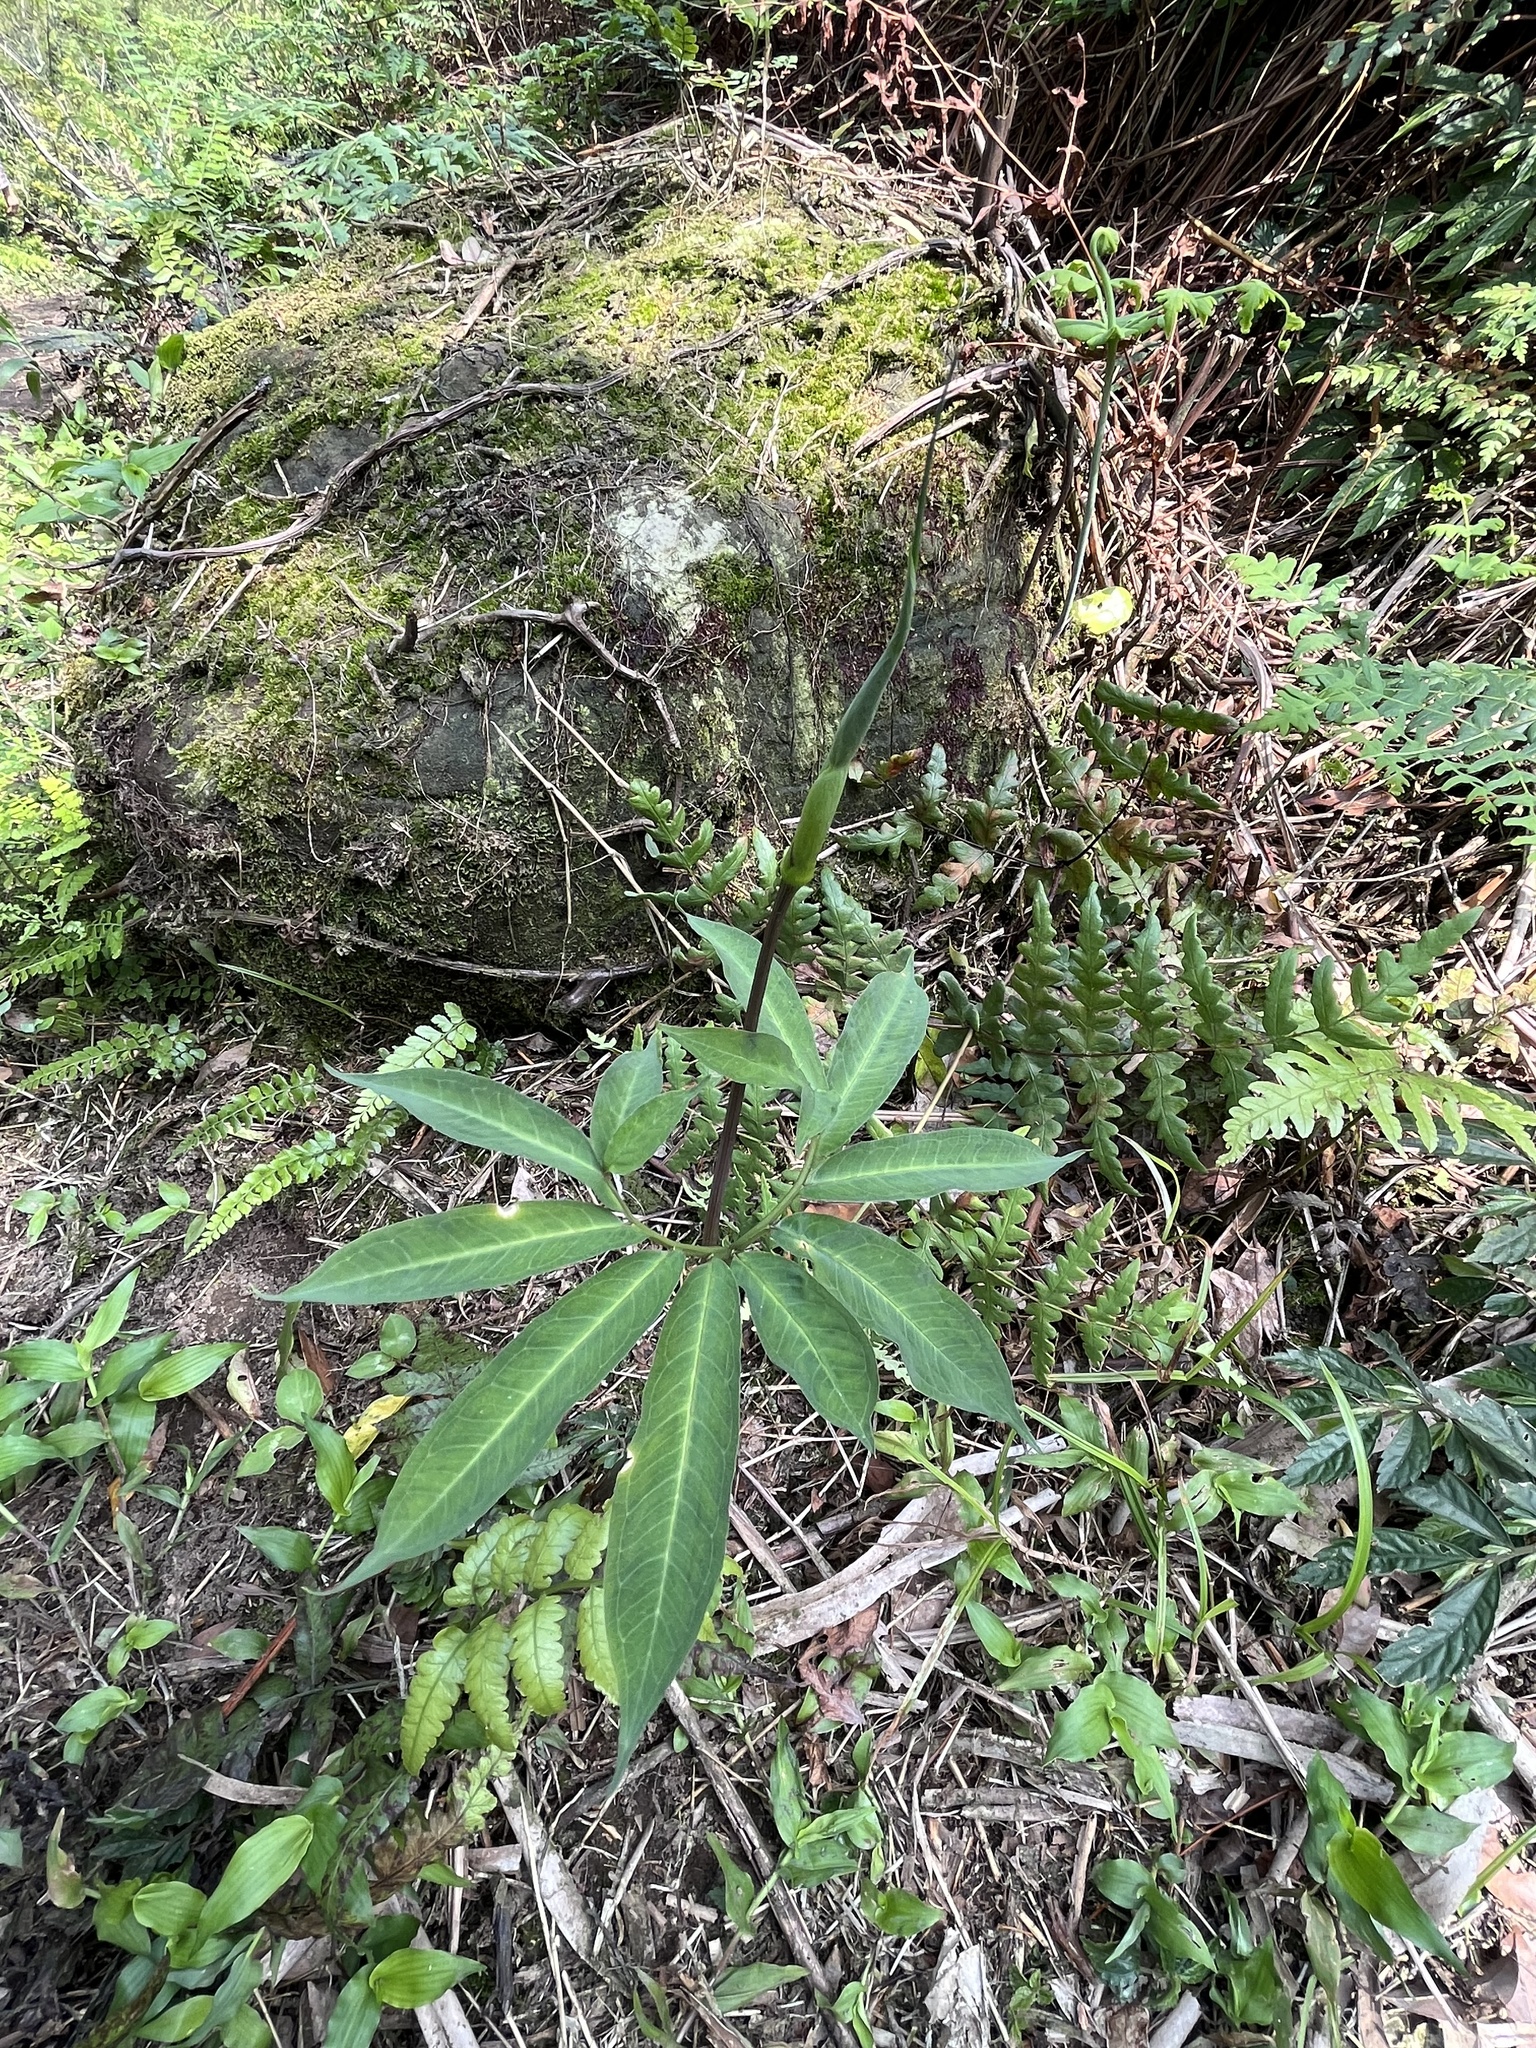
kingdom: Plantae
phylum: Tracheophyta
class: Liliopsida
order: Alismatales
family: Araceae
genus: Arisaema
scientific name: Arisaema heterophyllum
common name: Dancing crane cobra lily
